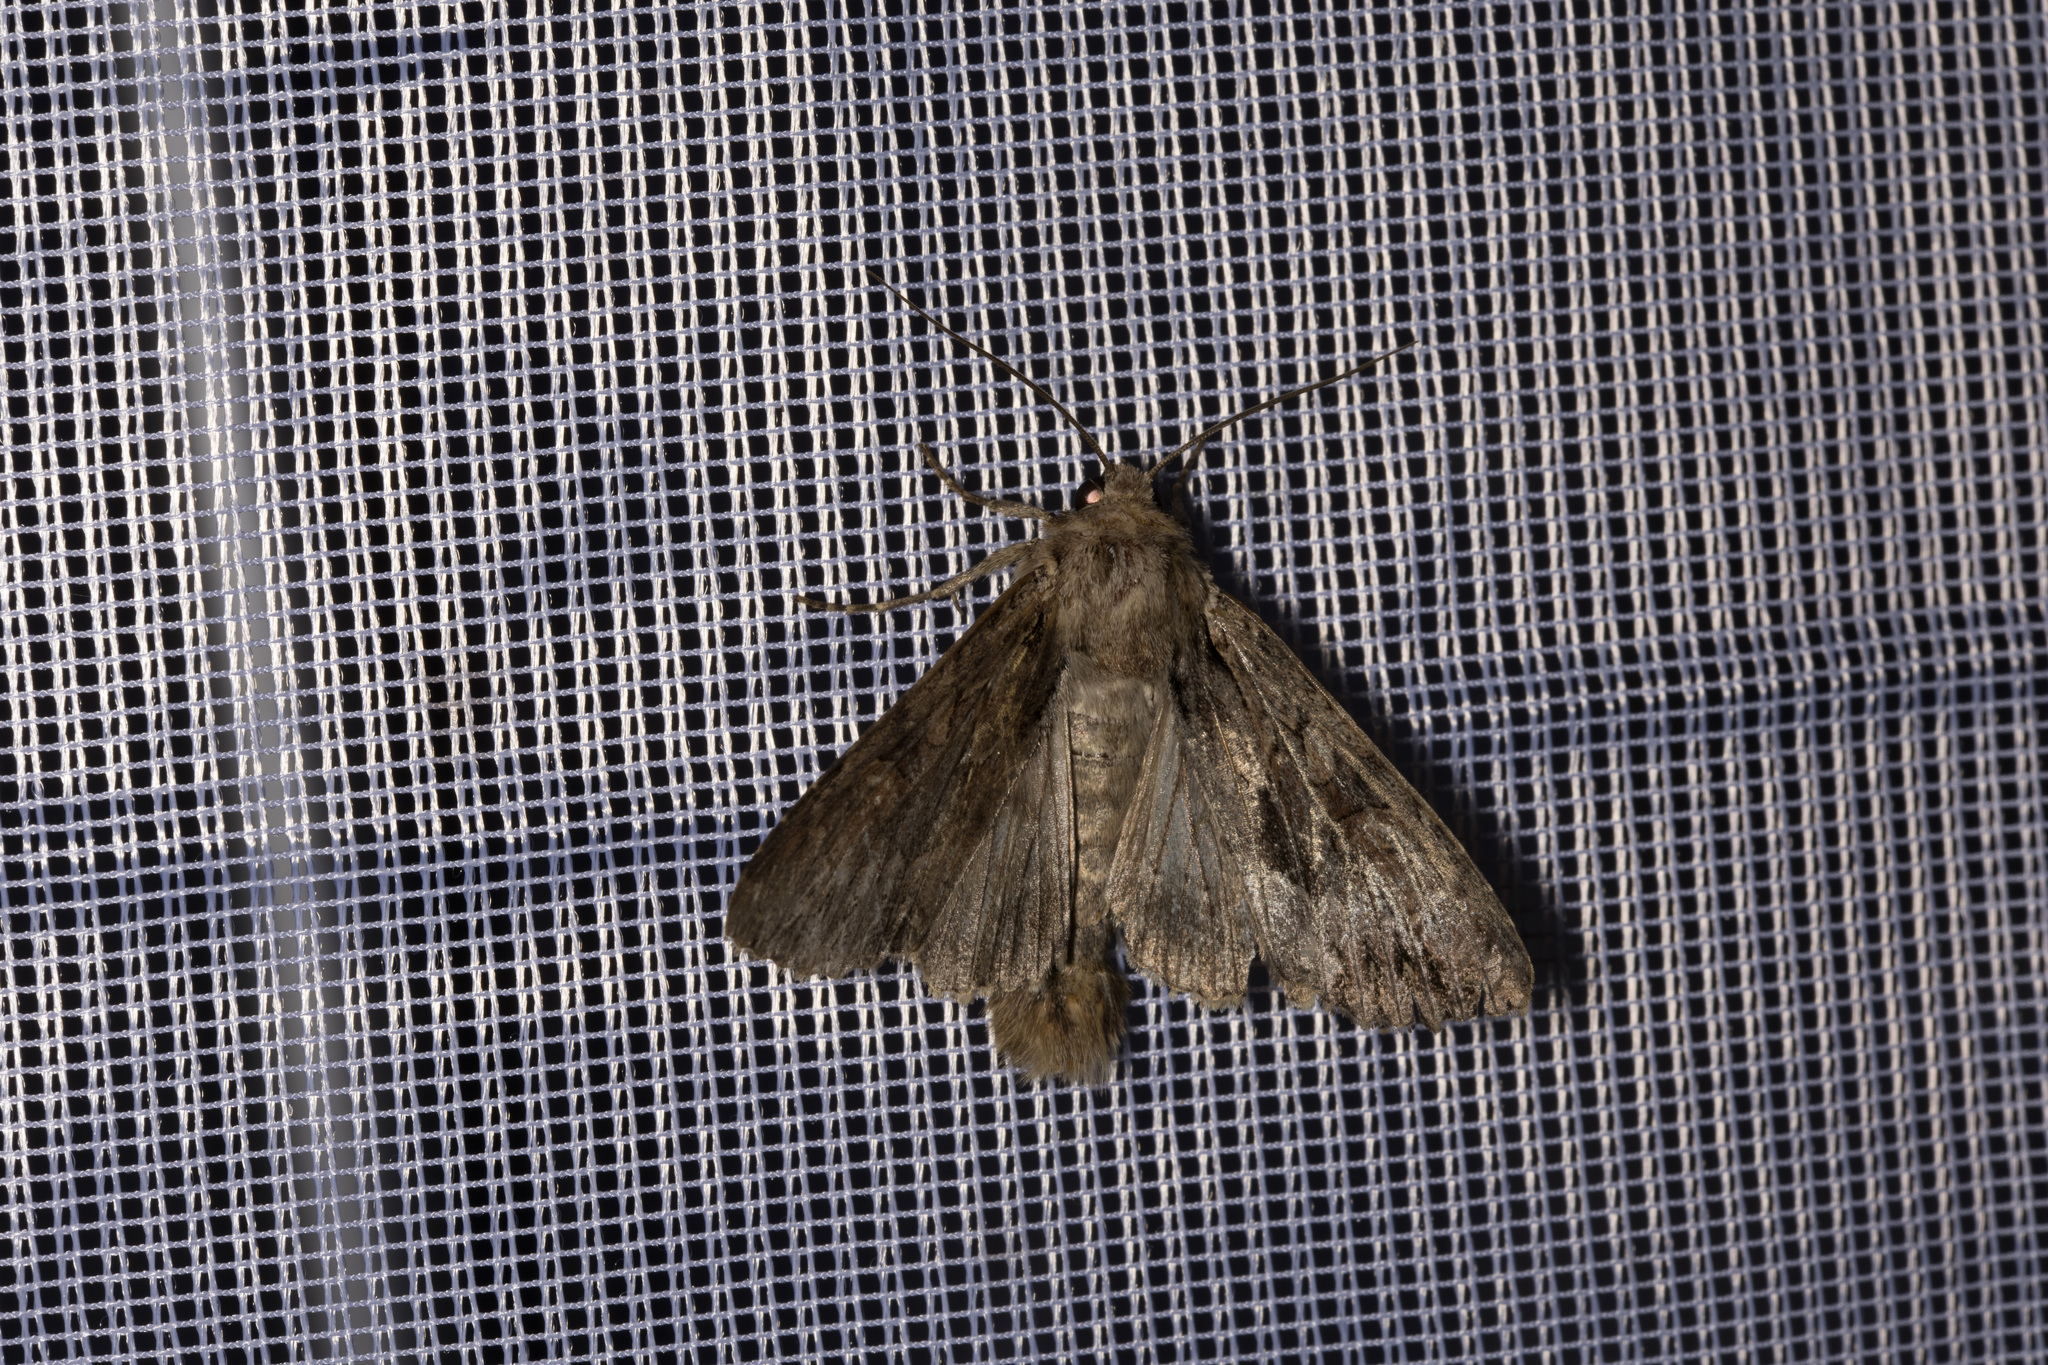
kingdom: Animalia
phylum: Arthropoda
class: Insecta
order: Lepidoptera
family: Noctuidae
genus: Apamea
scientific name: Apamea monoglypha
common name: Dark arches
